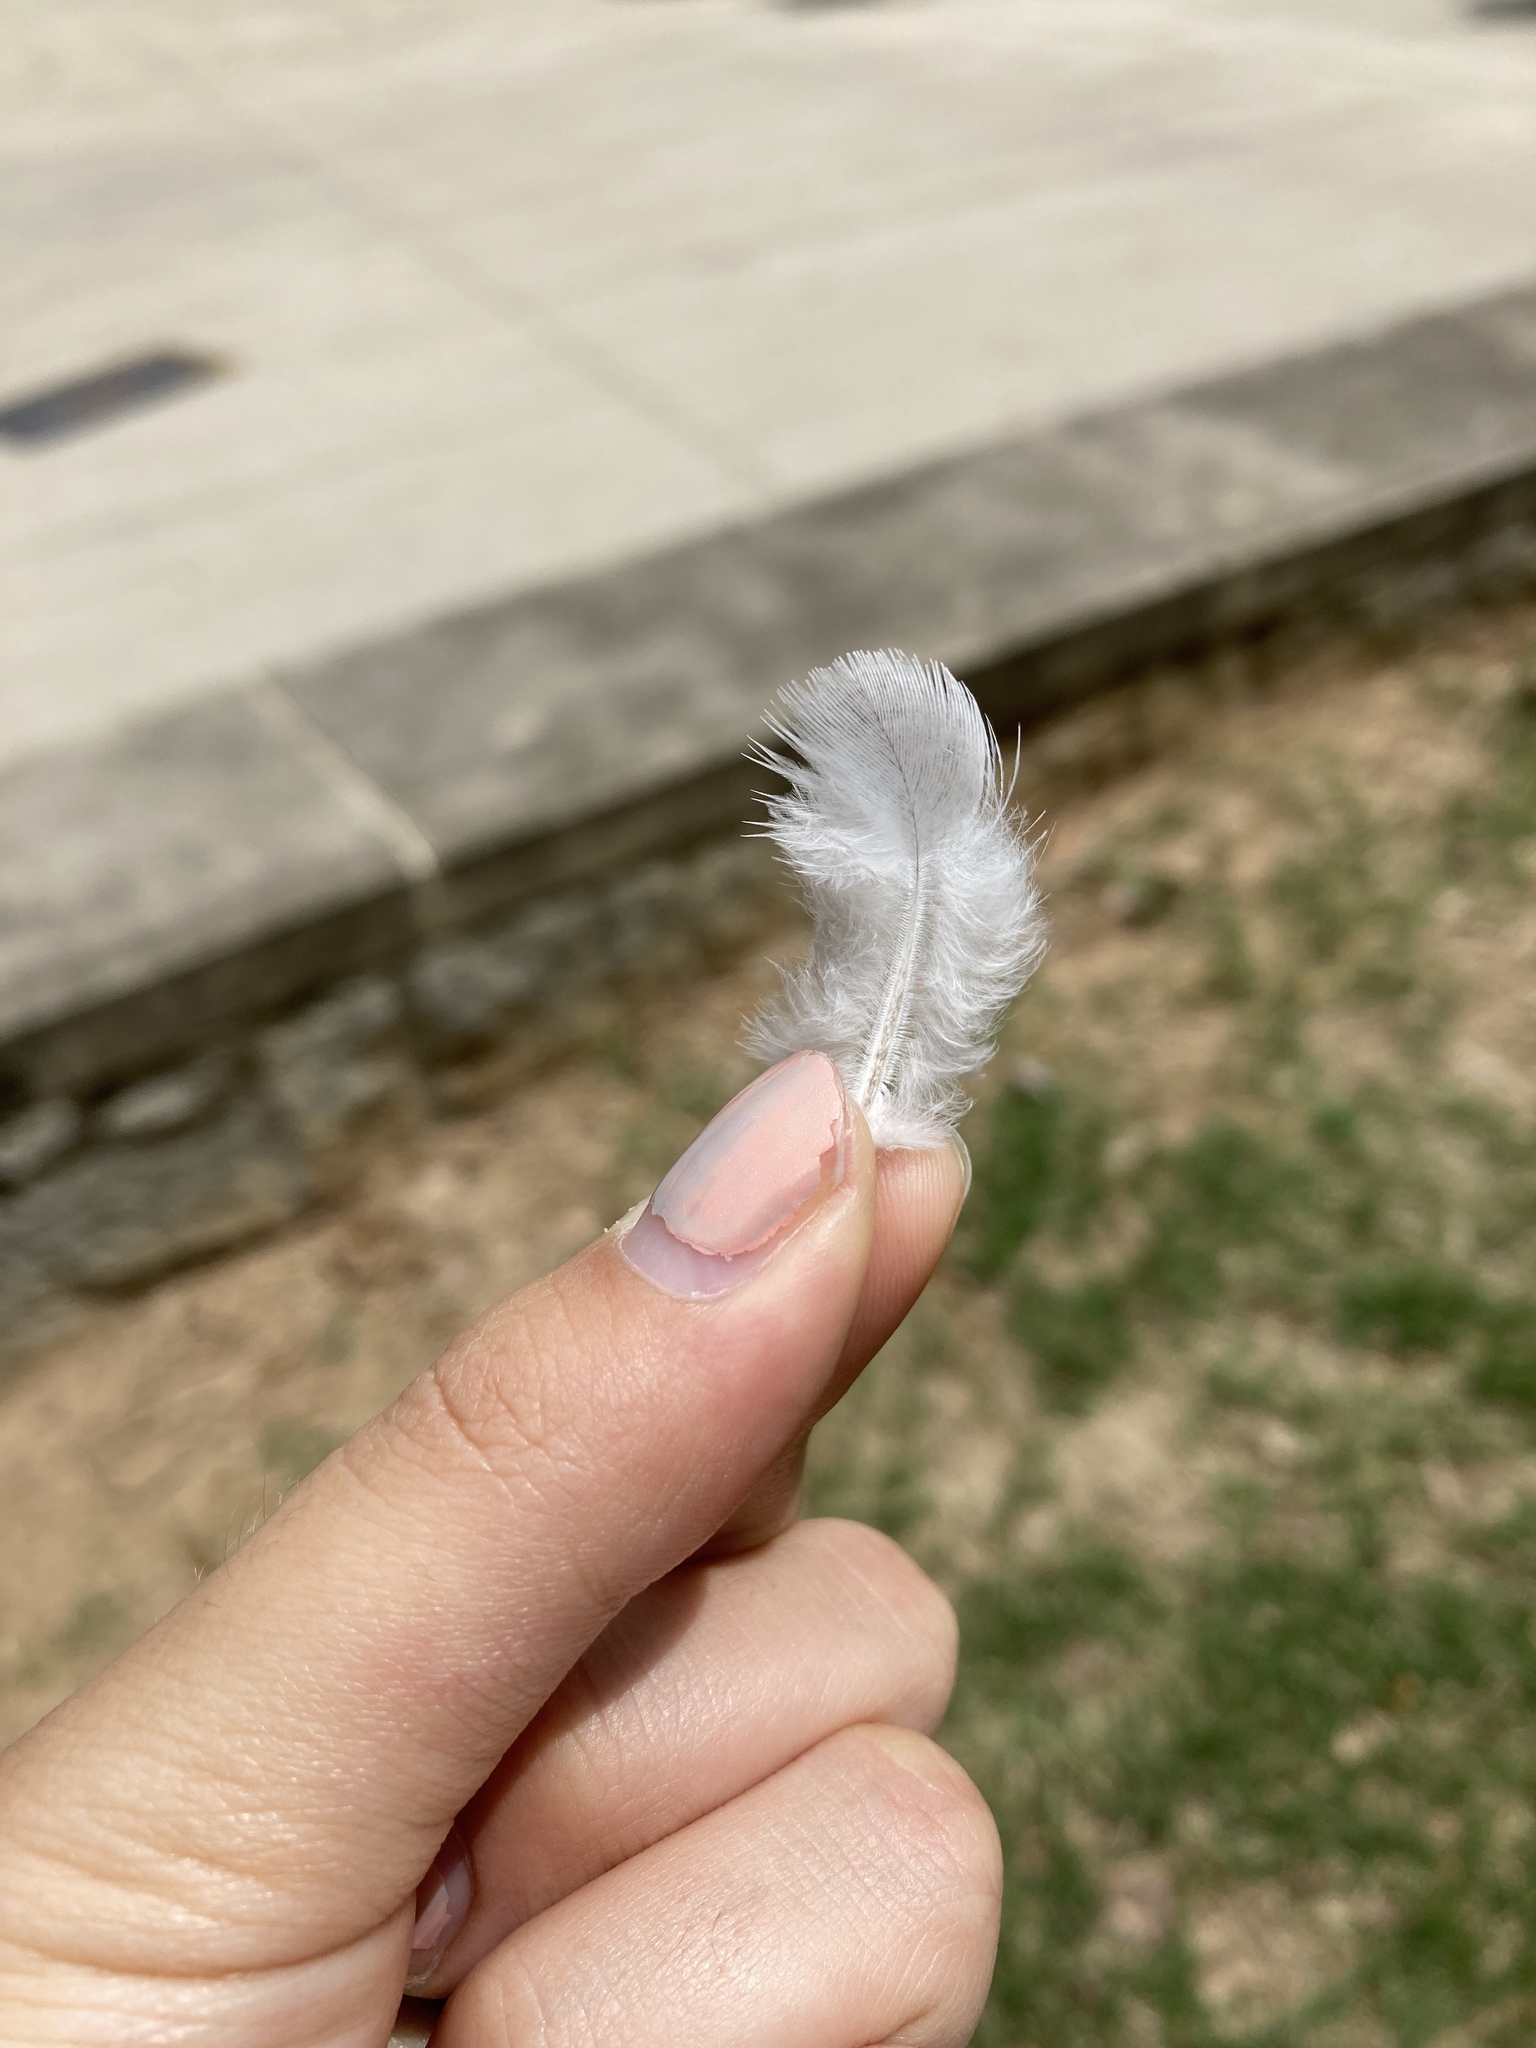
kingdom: Animalia
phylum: Chordata
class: Aves
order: Columbiformes
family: Columbidae
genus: Columba
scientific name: Columba livia
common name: Rock pigeon
